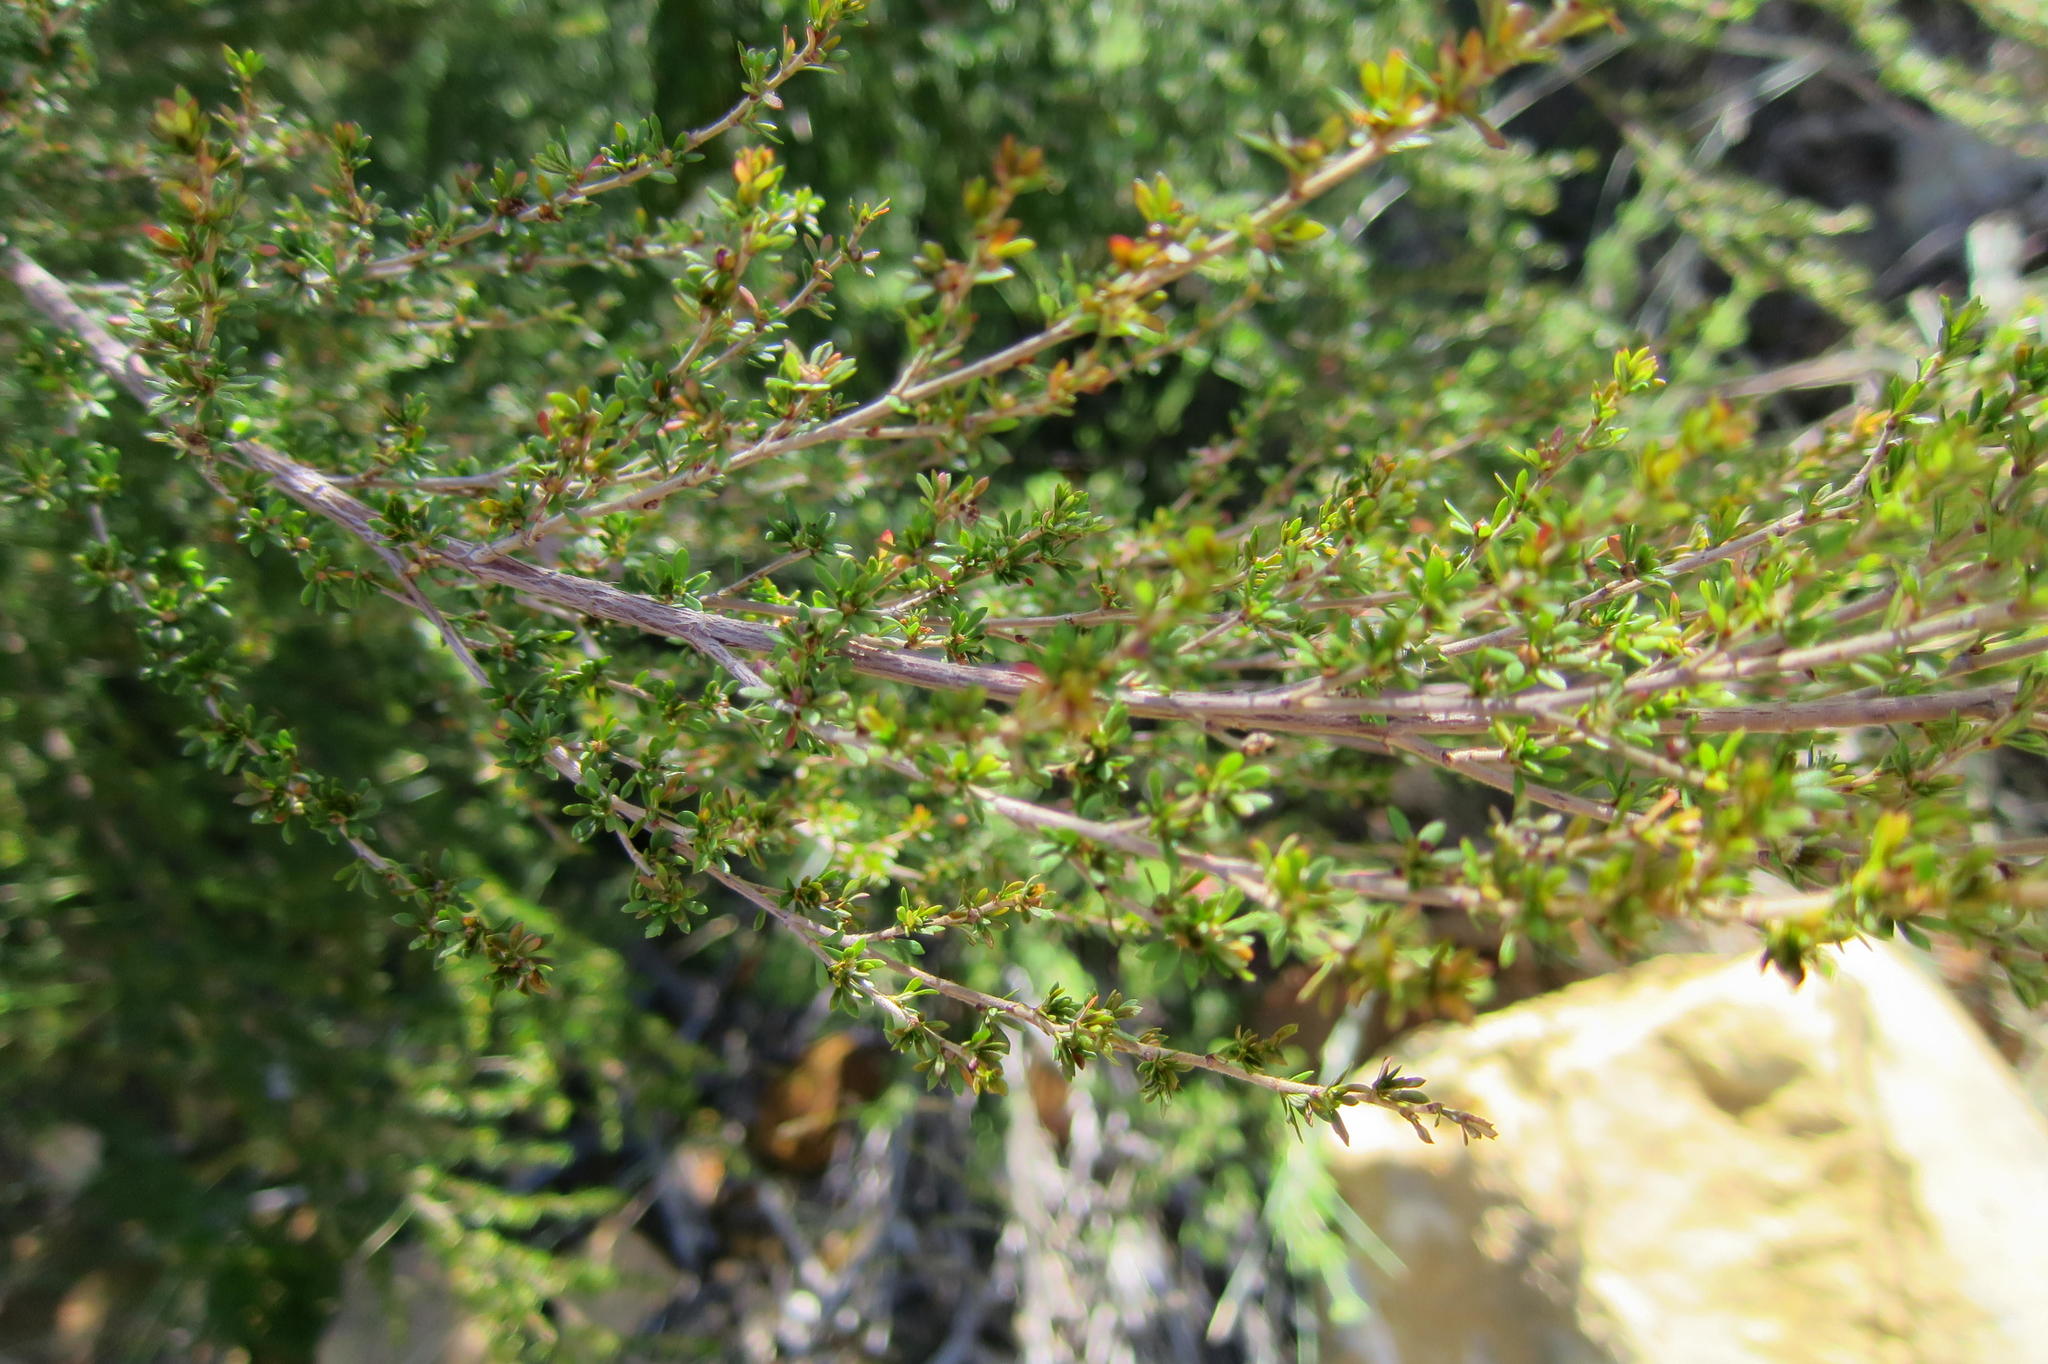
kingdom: Plantae
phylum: Tracheophyta
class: Magnoliopsida
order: Rosales
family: Rosaceae
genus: Cliffortia
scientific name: Cliffortia serpyllifolia
